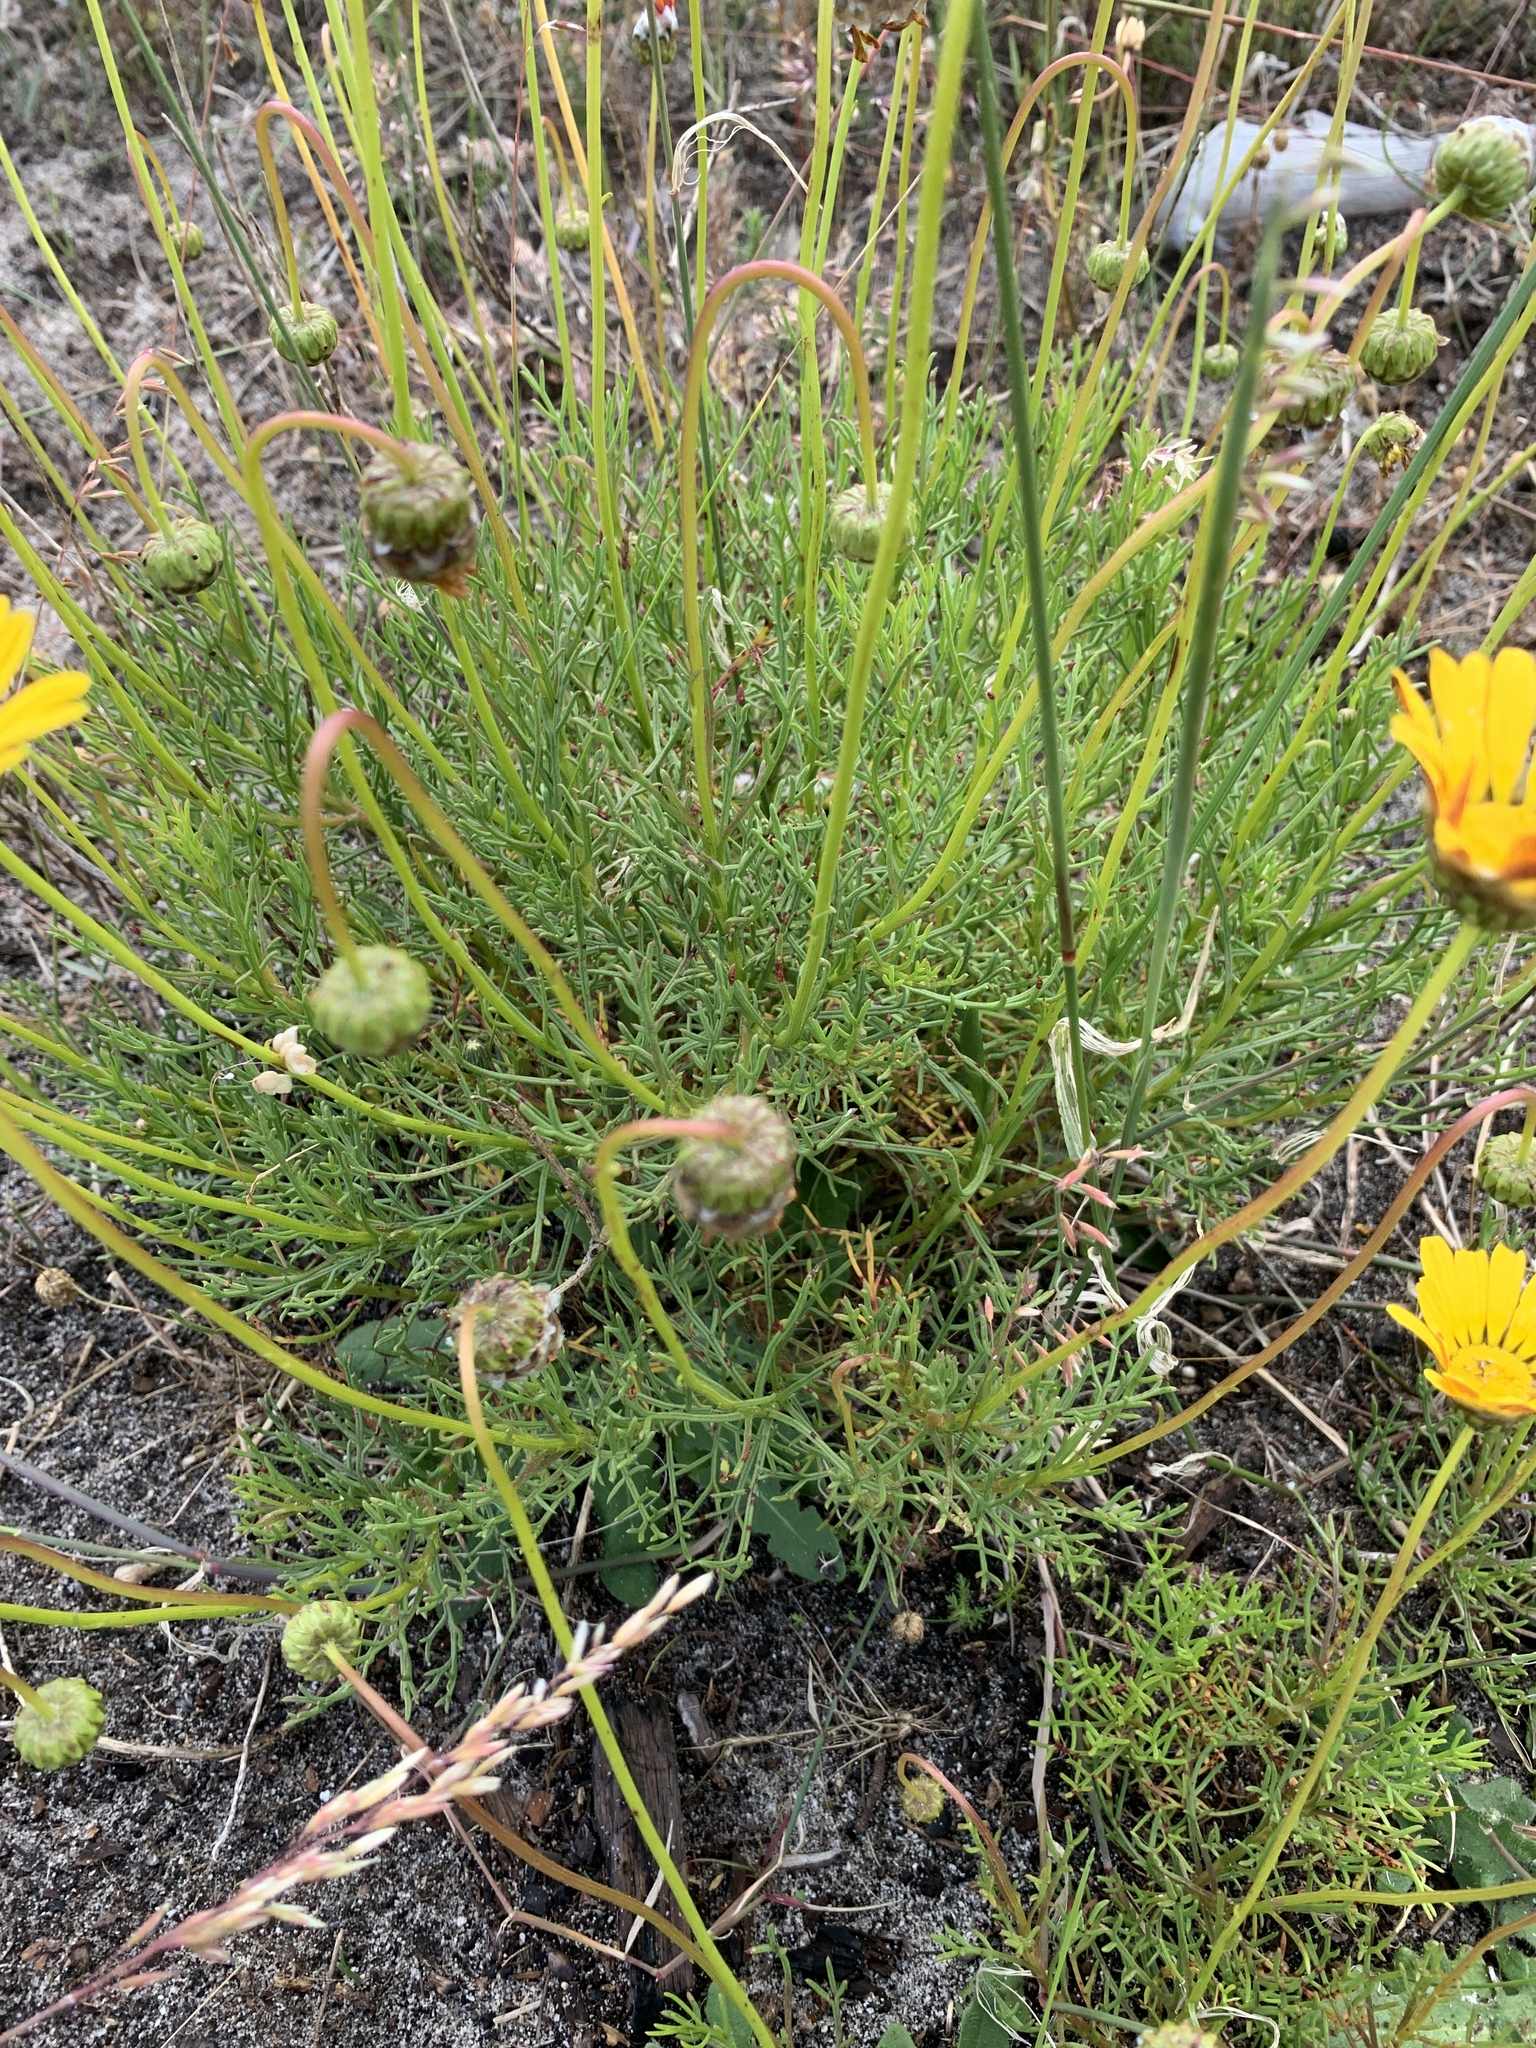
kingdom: Plantae
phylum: Tracheophyta
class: Magnoliopsida
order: Asterales
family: Asteraceae
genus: Ursinia
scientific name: Ursinia paleacea
